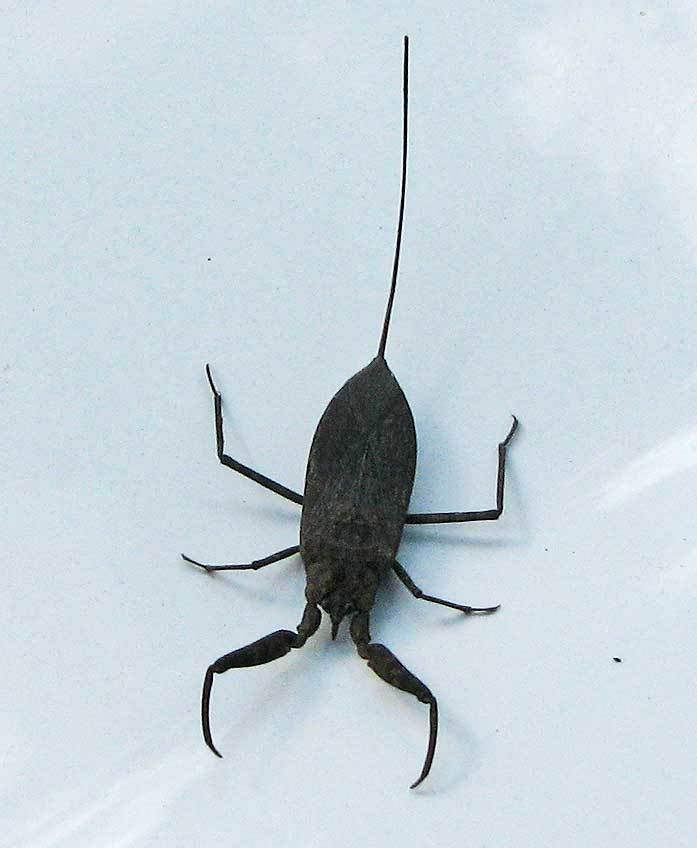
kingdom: Animalia
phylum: Arthropoda
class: Insecta
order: Hemiptera
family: Nepidae
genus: Laccotrephes
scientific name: Laccotrephes tristis
